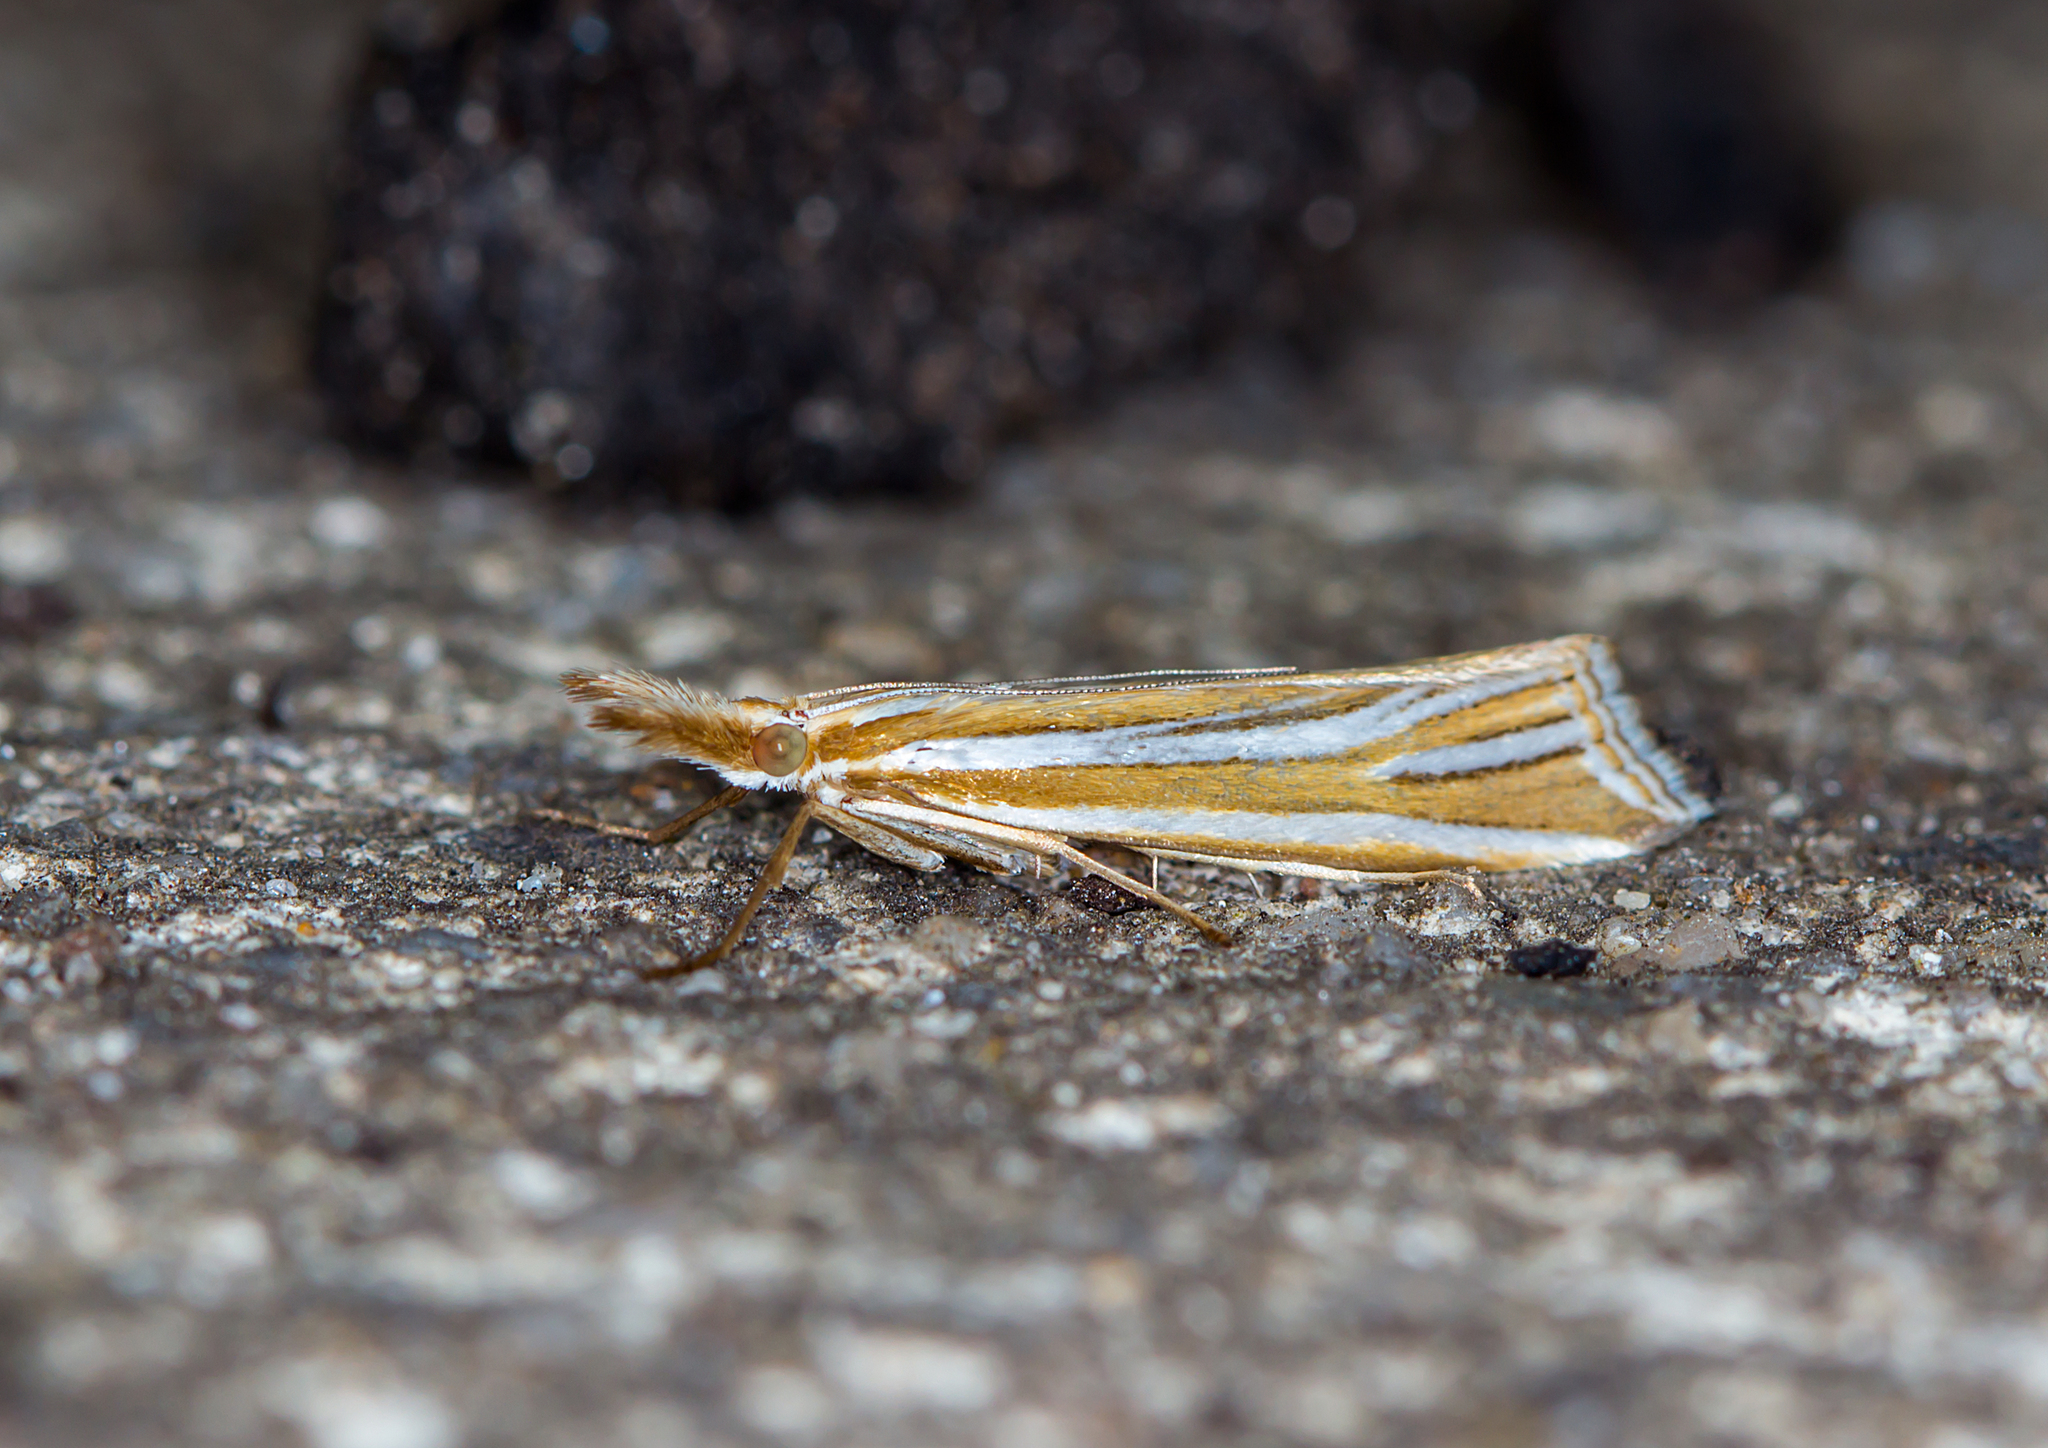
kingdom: Animalia
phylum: Arthropoda
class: Insecta
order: Lepidoptera
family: Crambidae
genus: Hednota
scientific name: Hednota relatalis
